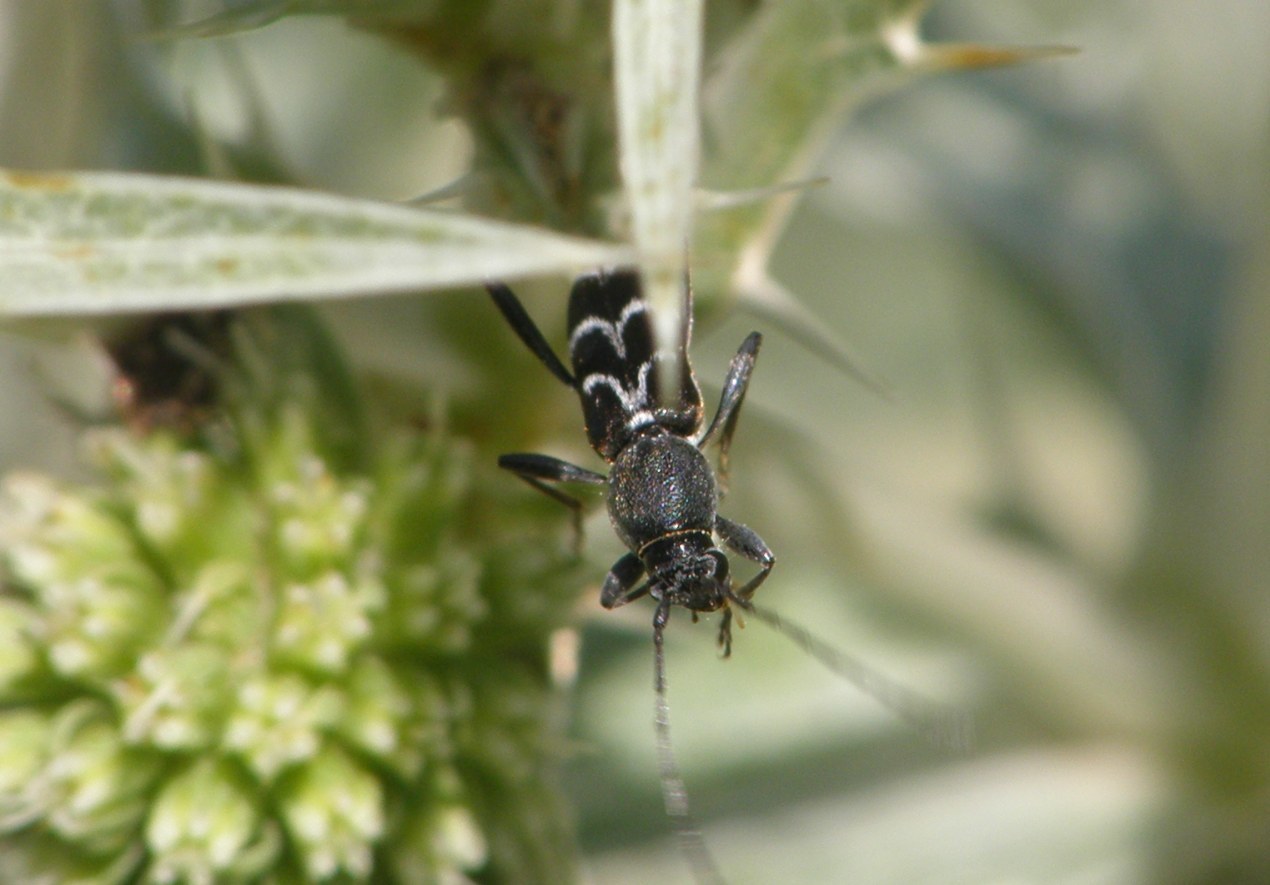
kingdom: Animalia
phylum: Arthropoda
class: Insecta
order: Coleoptera
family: Cerambycidae
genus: Chlorophorus
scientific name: Chlorophorus sartor
